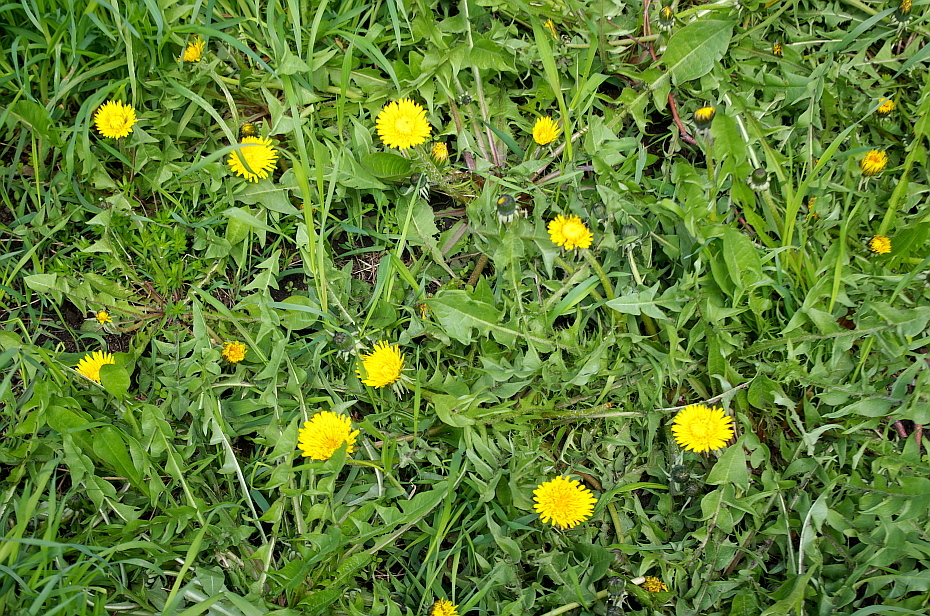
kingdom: Plantae
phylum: Tracheophyta
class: Magnoliopsida
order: Asterales
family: Asteraceae
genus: Taraxacum
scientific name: Taraxacum officinale
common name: Common dandelion
